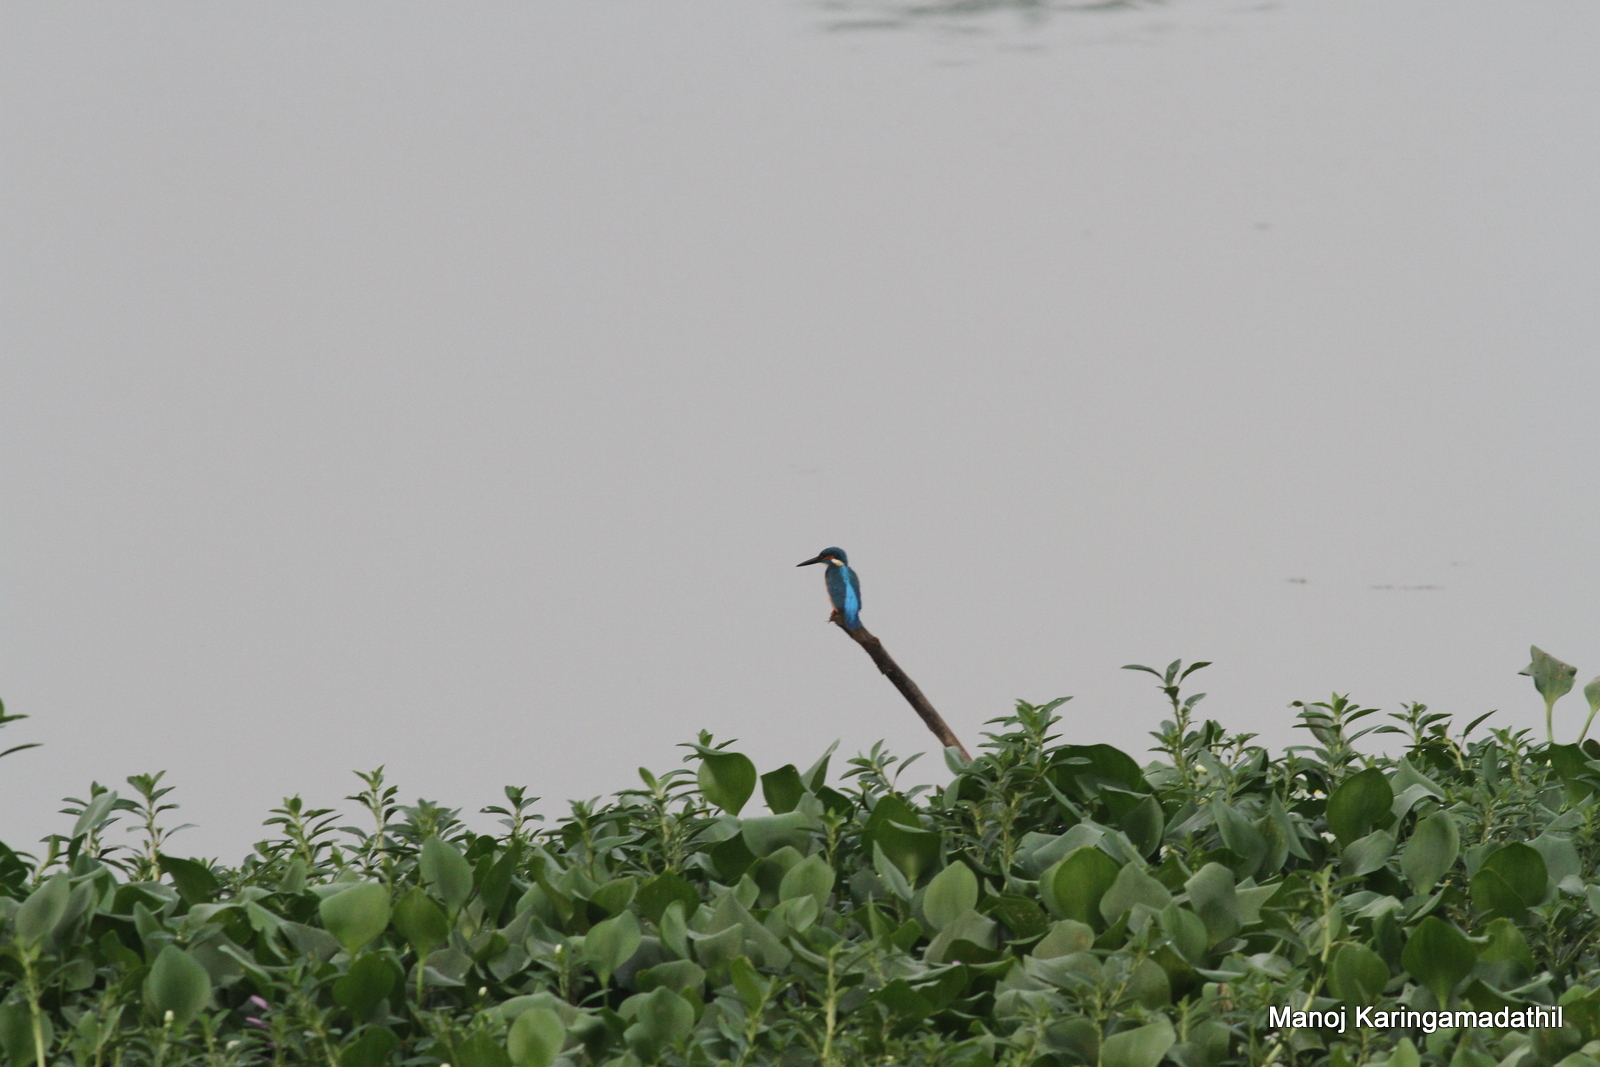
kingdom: Animalia
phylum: Chordata
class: Aves
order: Coraciiformes
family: Alcedinidae
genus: Alcedo
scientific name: Alcedo atthis
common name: Common kingfisher
